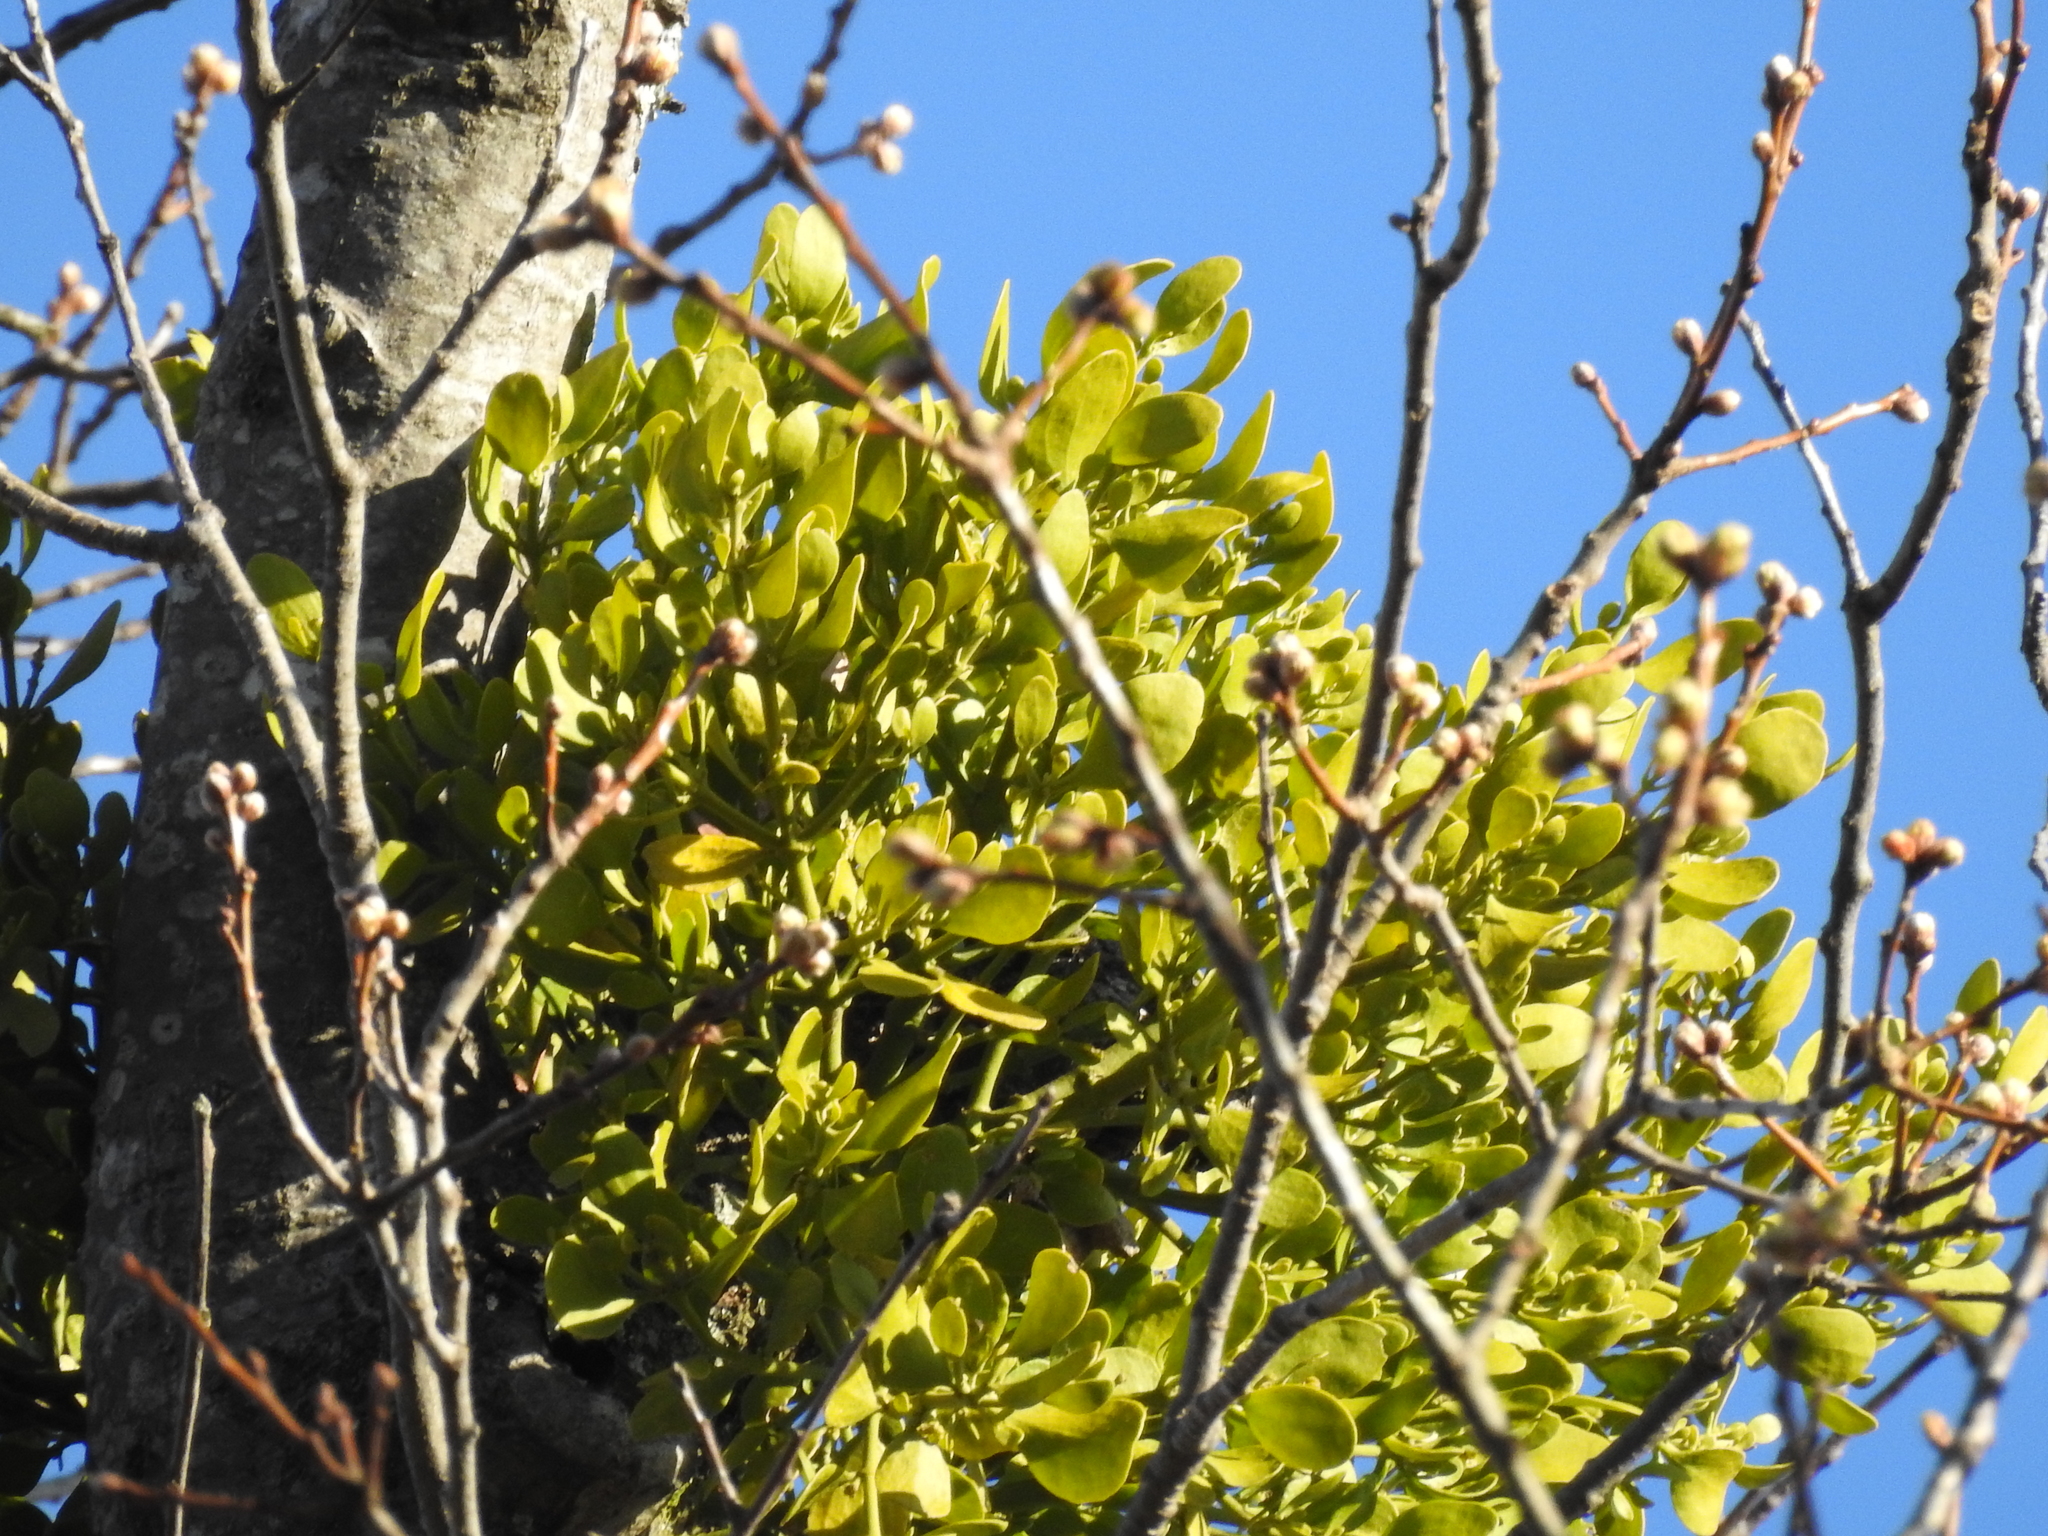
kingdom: Plantae
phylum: Tracheophyta
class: Magnoliopsida
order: Santalales
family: Viscaceae
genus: Phoradendron
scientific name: Phoradendron leucarpum
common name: Pacific mistletoe
